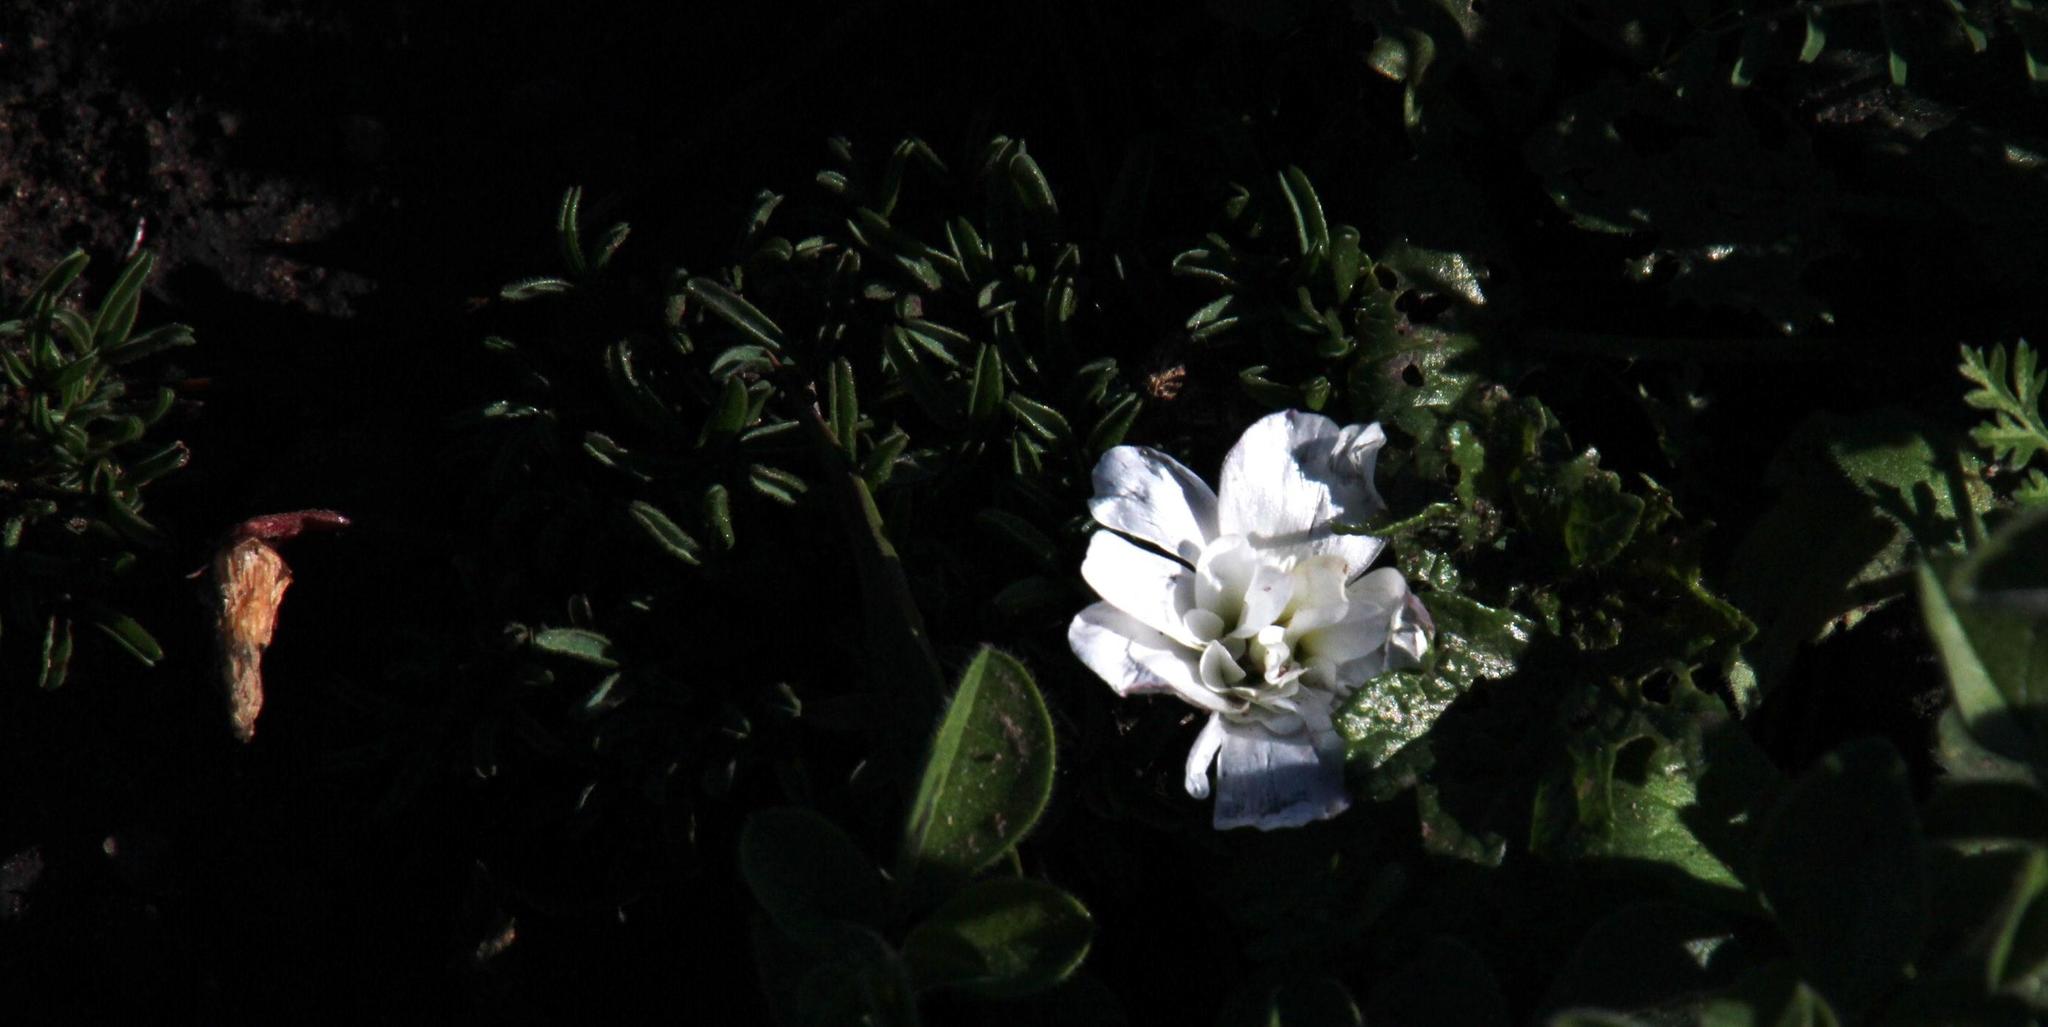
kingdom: Plantae
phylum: Tracheophyta
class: Magnoliopsida
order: Oxalidales
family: Oxalidaceae
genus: Oxalis
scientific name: Oxalis glabra
